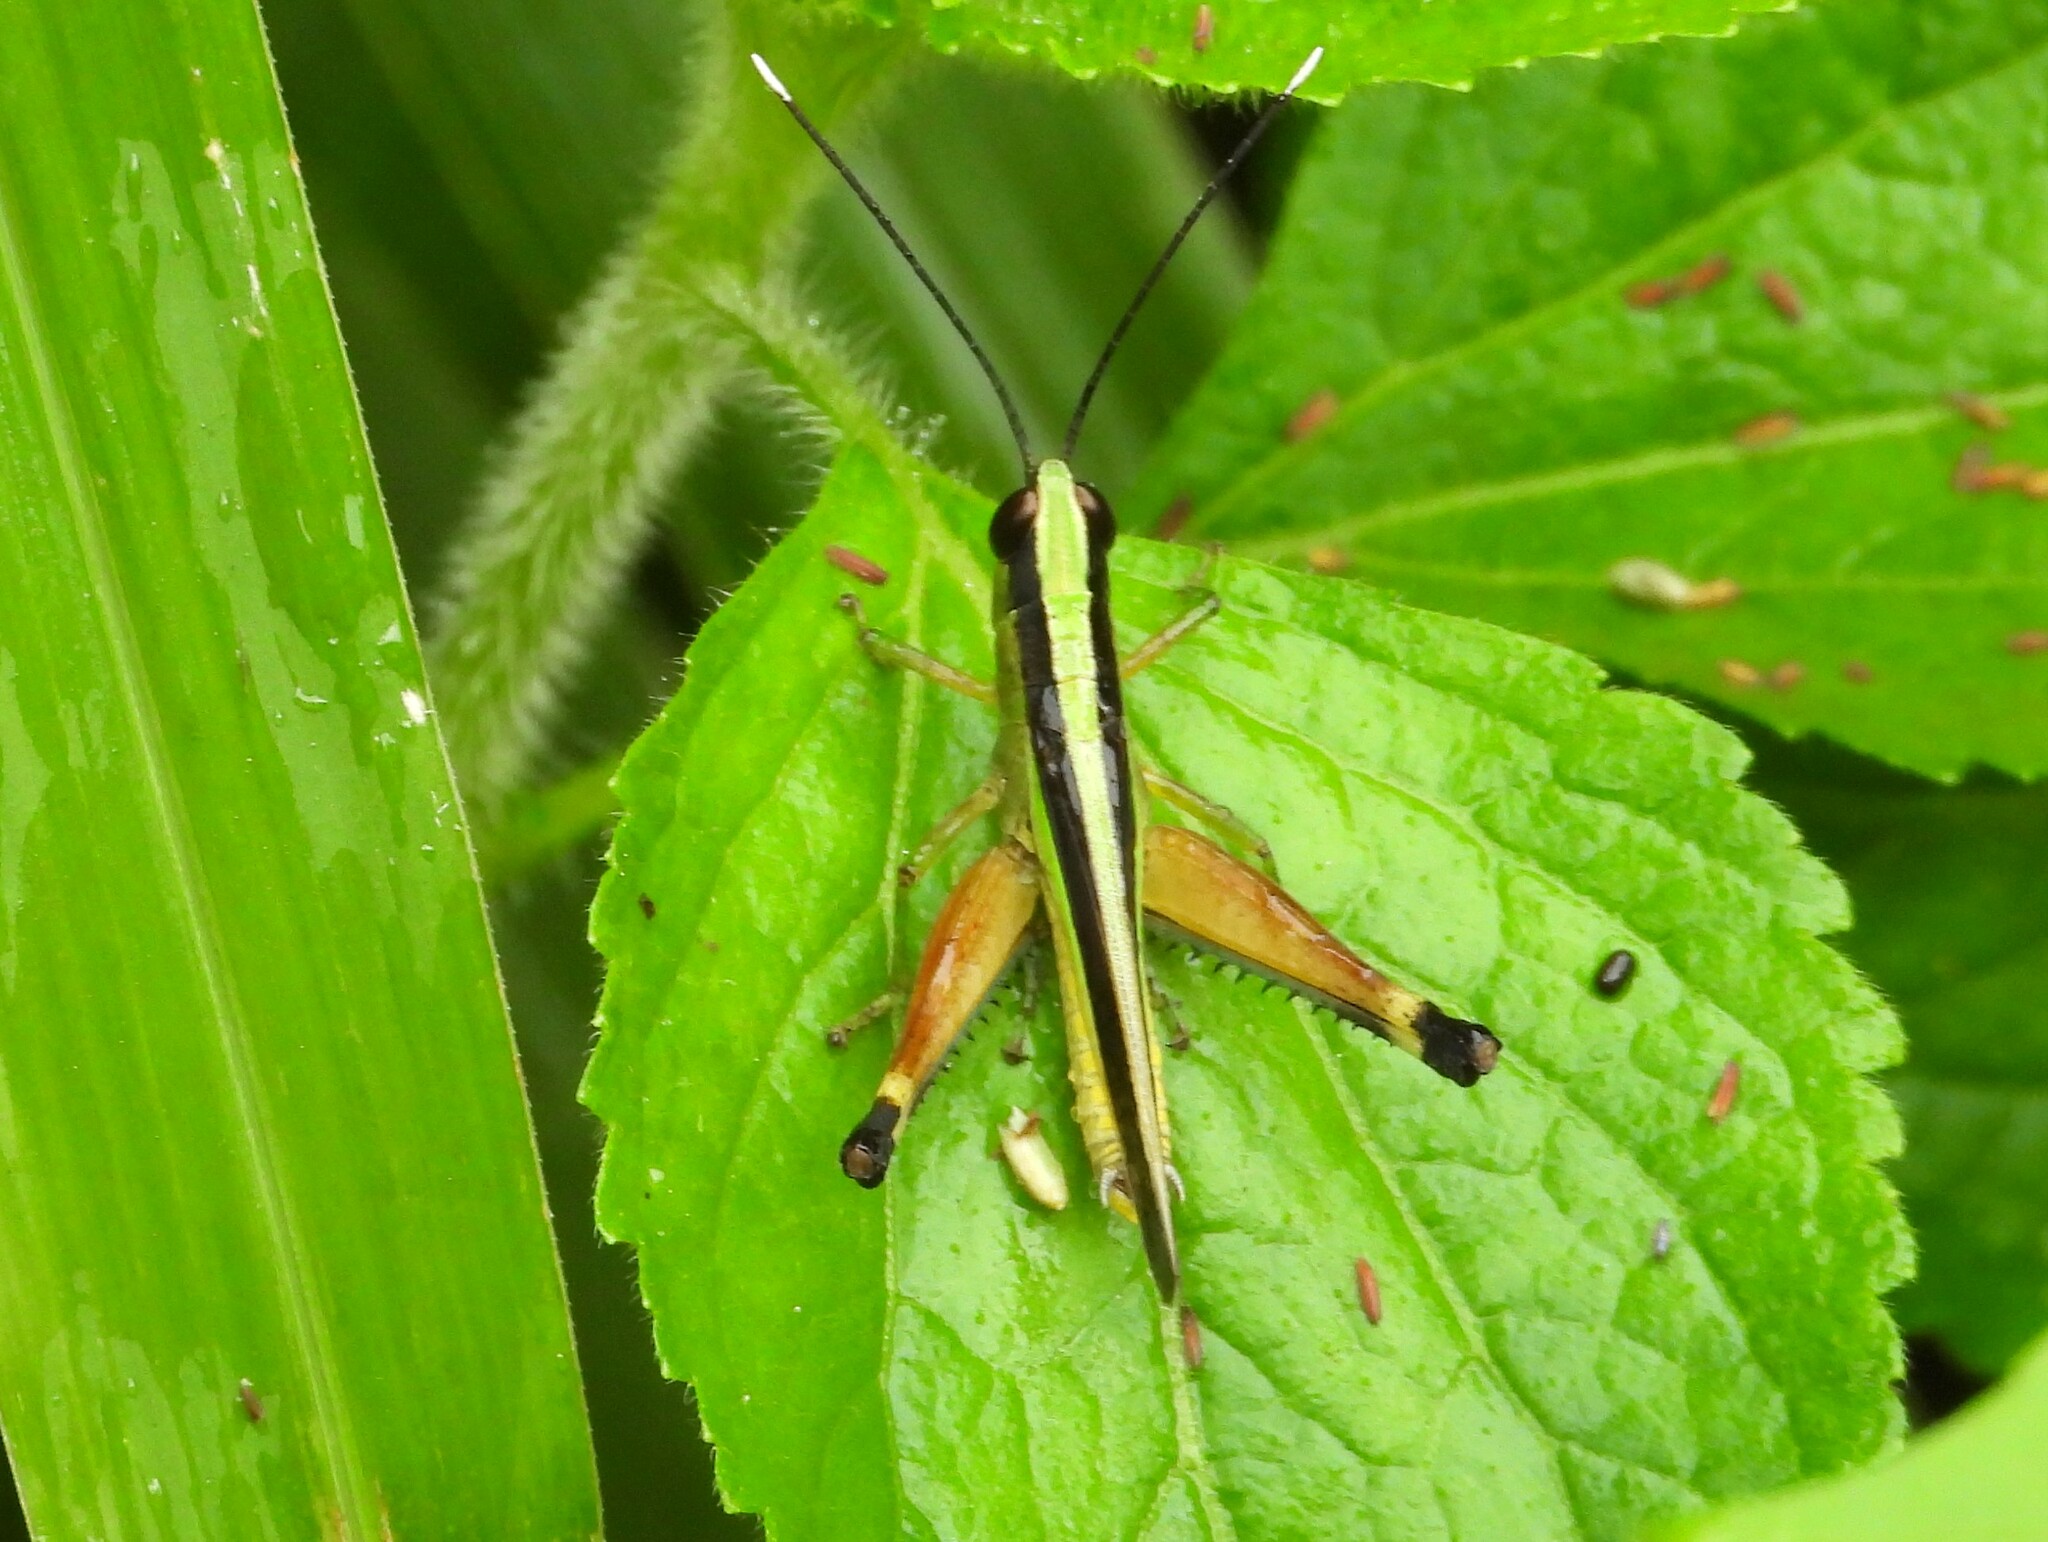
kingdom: Animalia
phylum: Arthropoda
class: Insecta
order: Orthoptera
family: Acrididae
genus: Ceracris
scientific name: Ceracris fasciata
